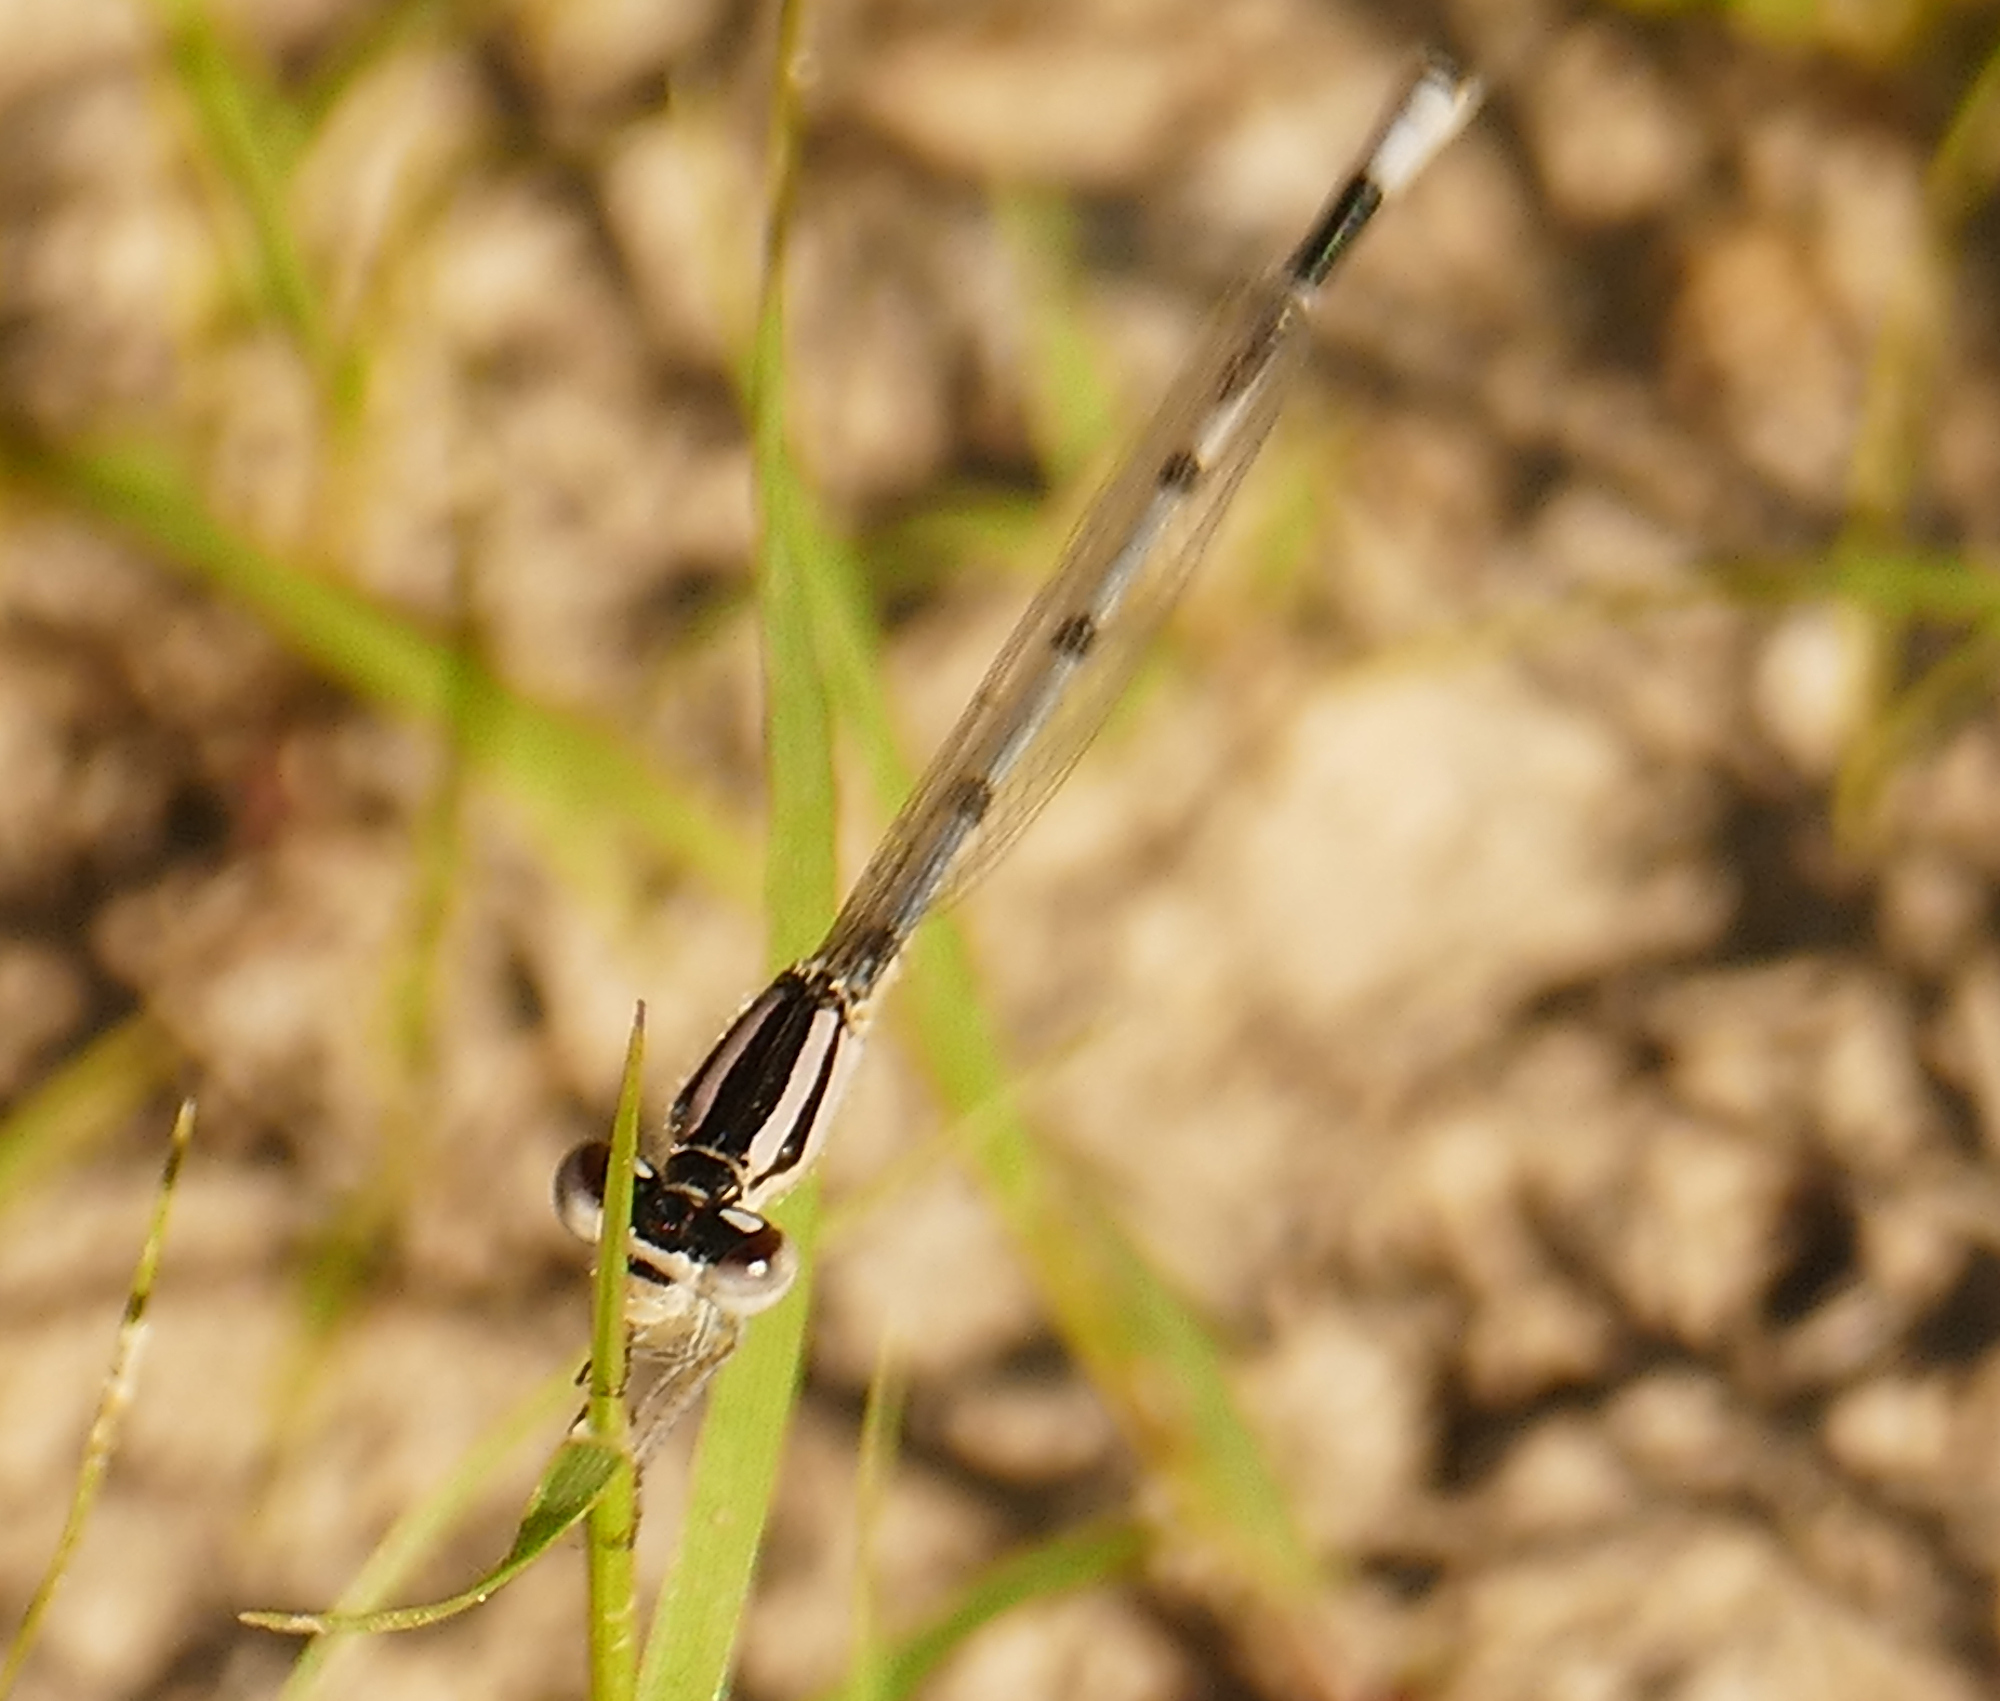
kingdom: Animalia
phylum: Arthropoda
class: Insecta
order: Odonata
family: Coenagrionidae
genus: Enallagma
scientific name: Enallagma civile
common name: Damselfly
